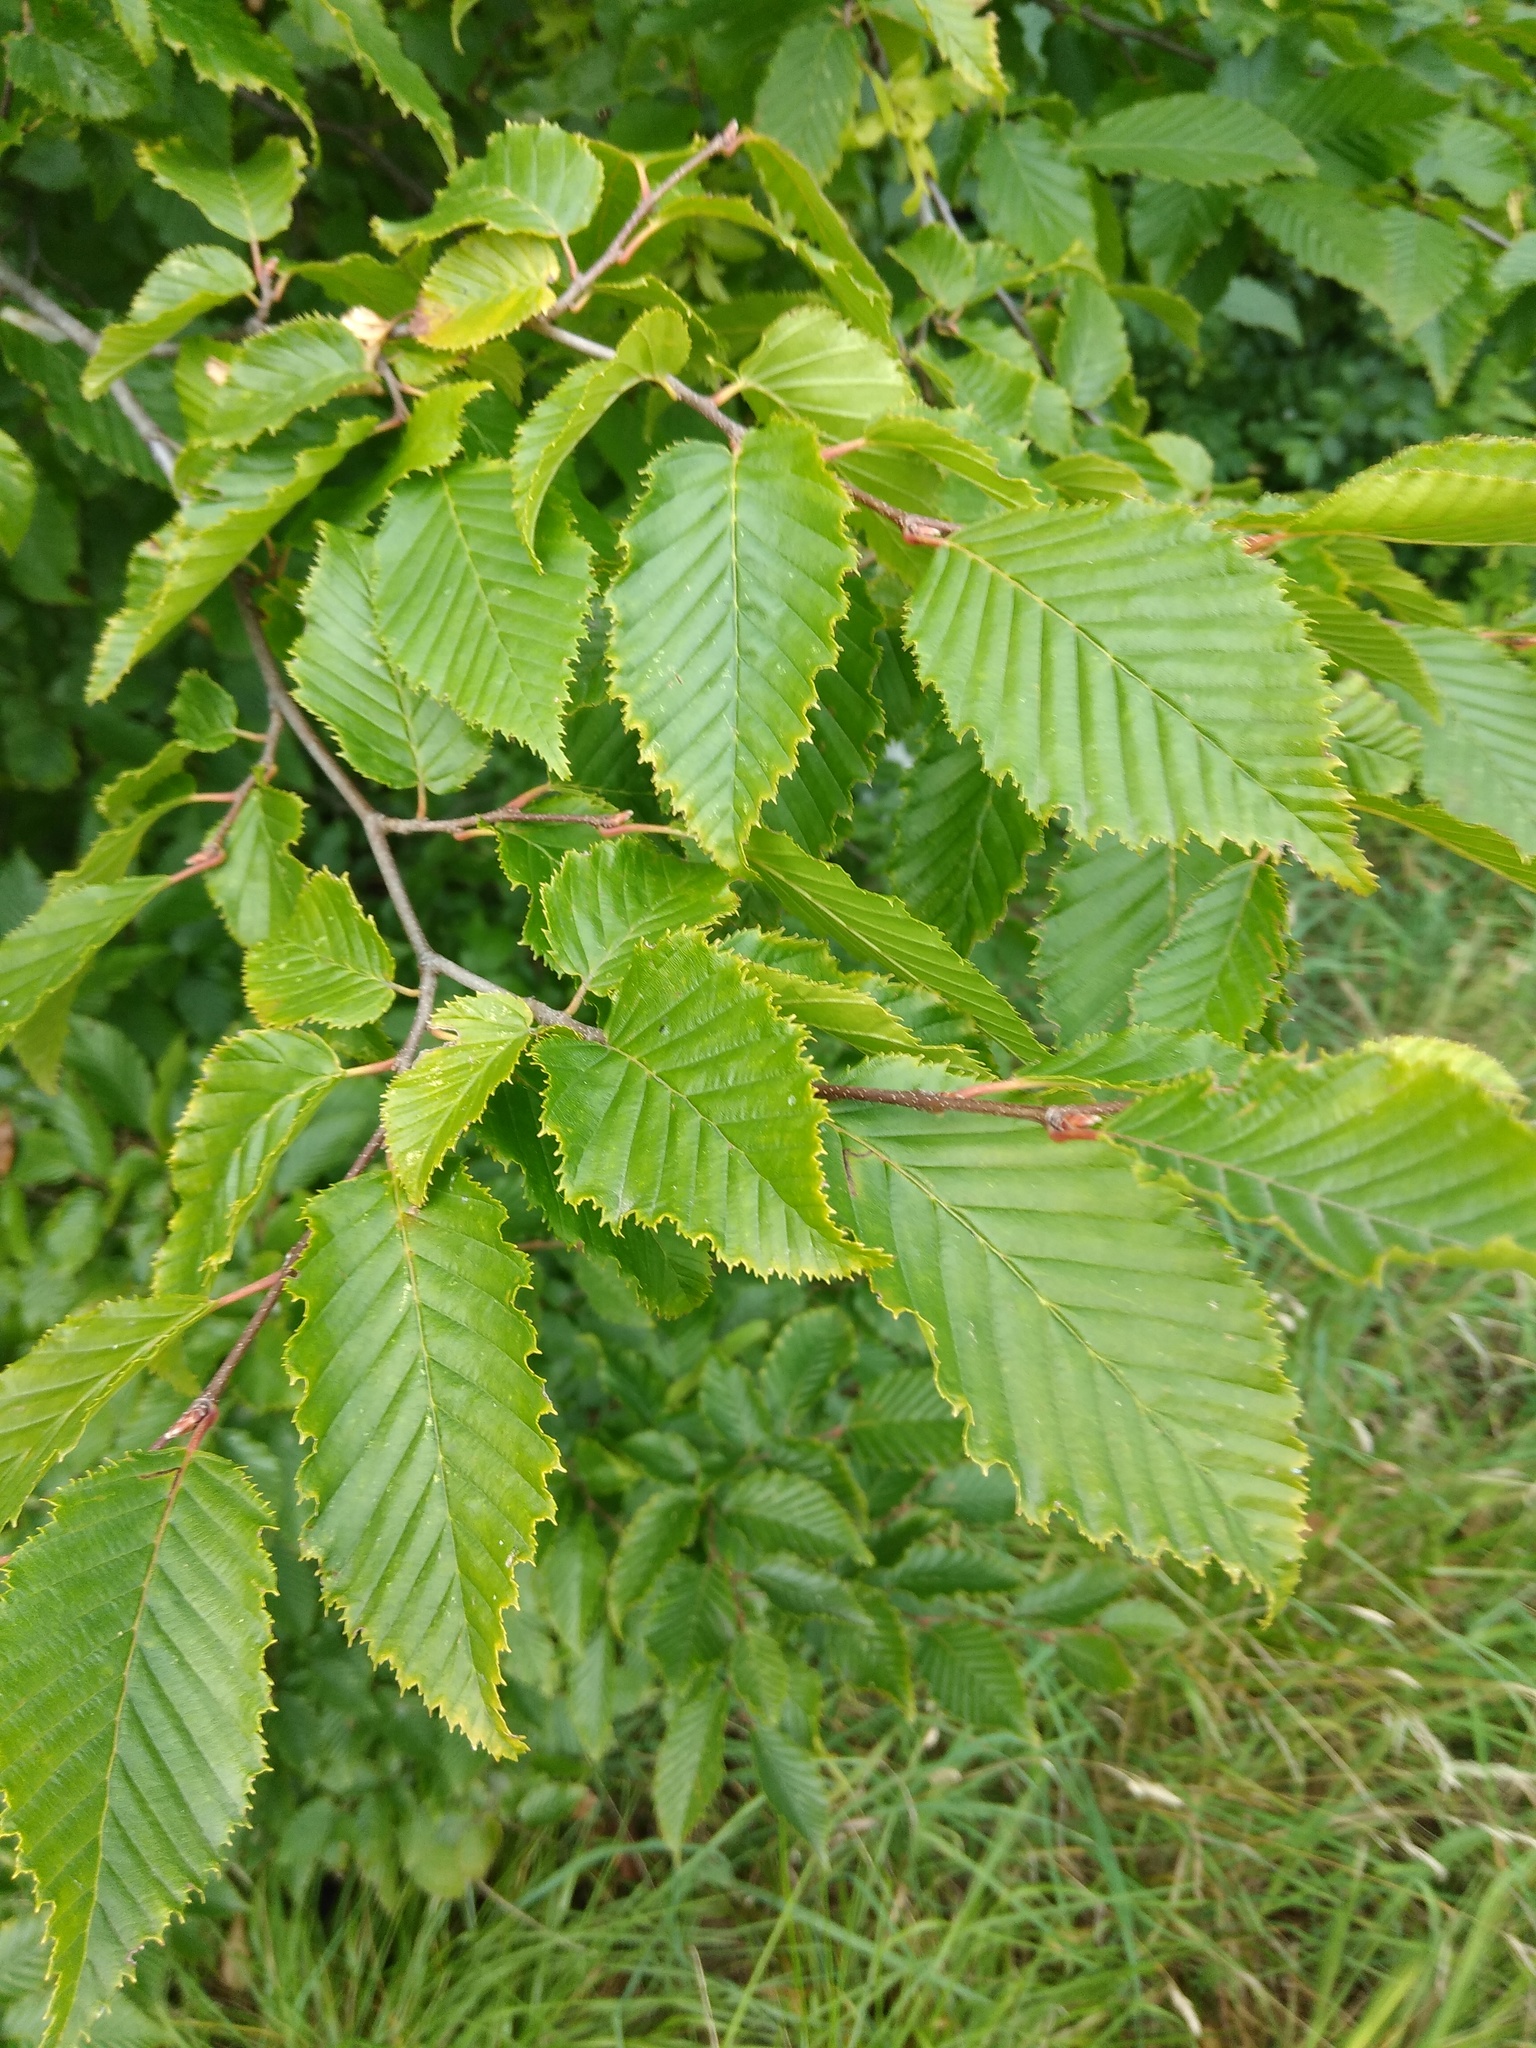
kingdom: Plantae
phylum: Tracheophyta
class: Magnoliopsida
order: Fagales
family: Betulaceae
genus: Carpinus
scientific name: Carpinus betulus
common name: Hornbeam
